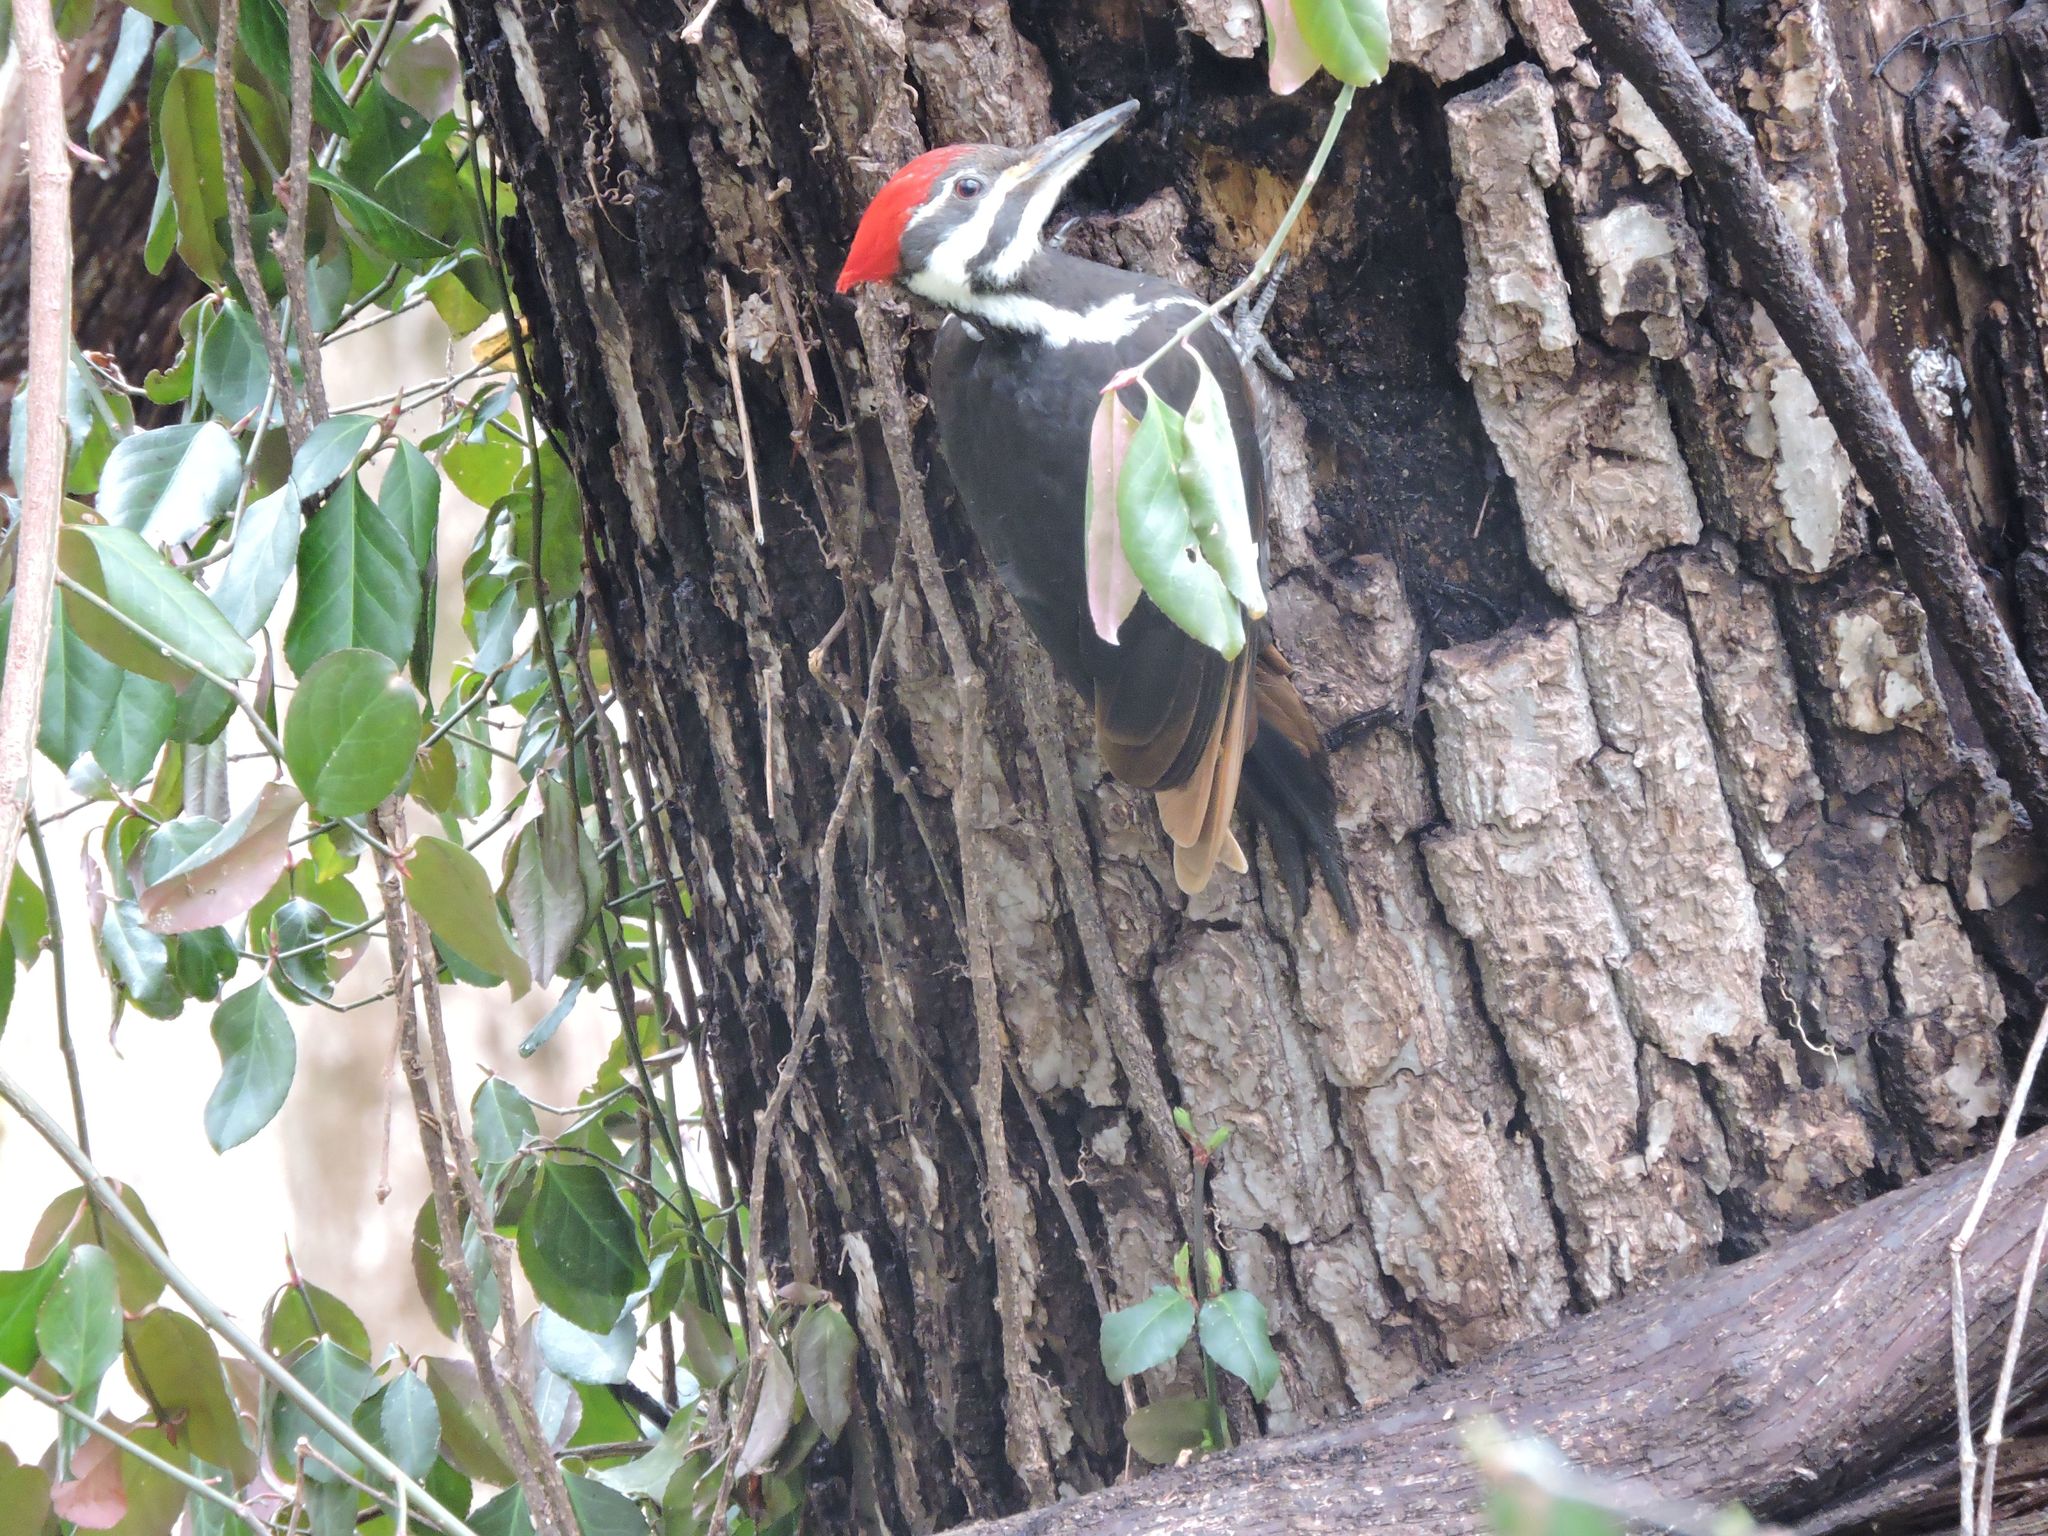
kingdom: Animalia
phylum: Chordata
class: Aves
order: Piciformes
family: Picidae
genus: Dryocopus
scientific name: Dryocopus pileatus
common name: Pileated woodpecker
